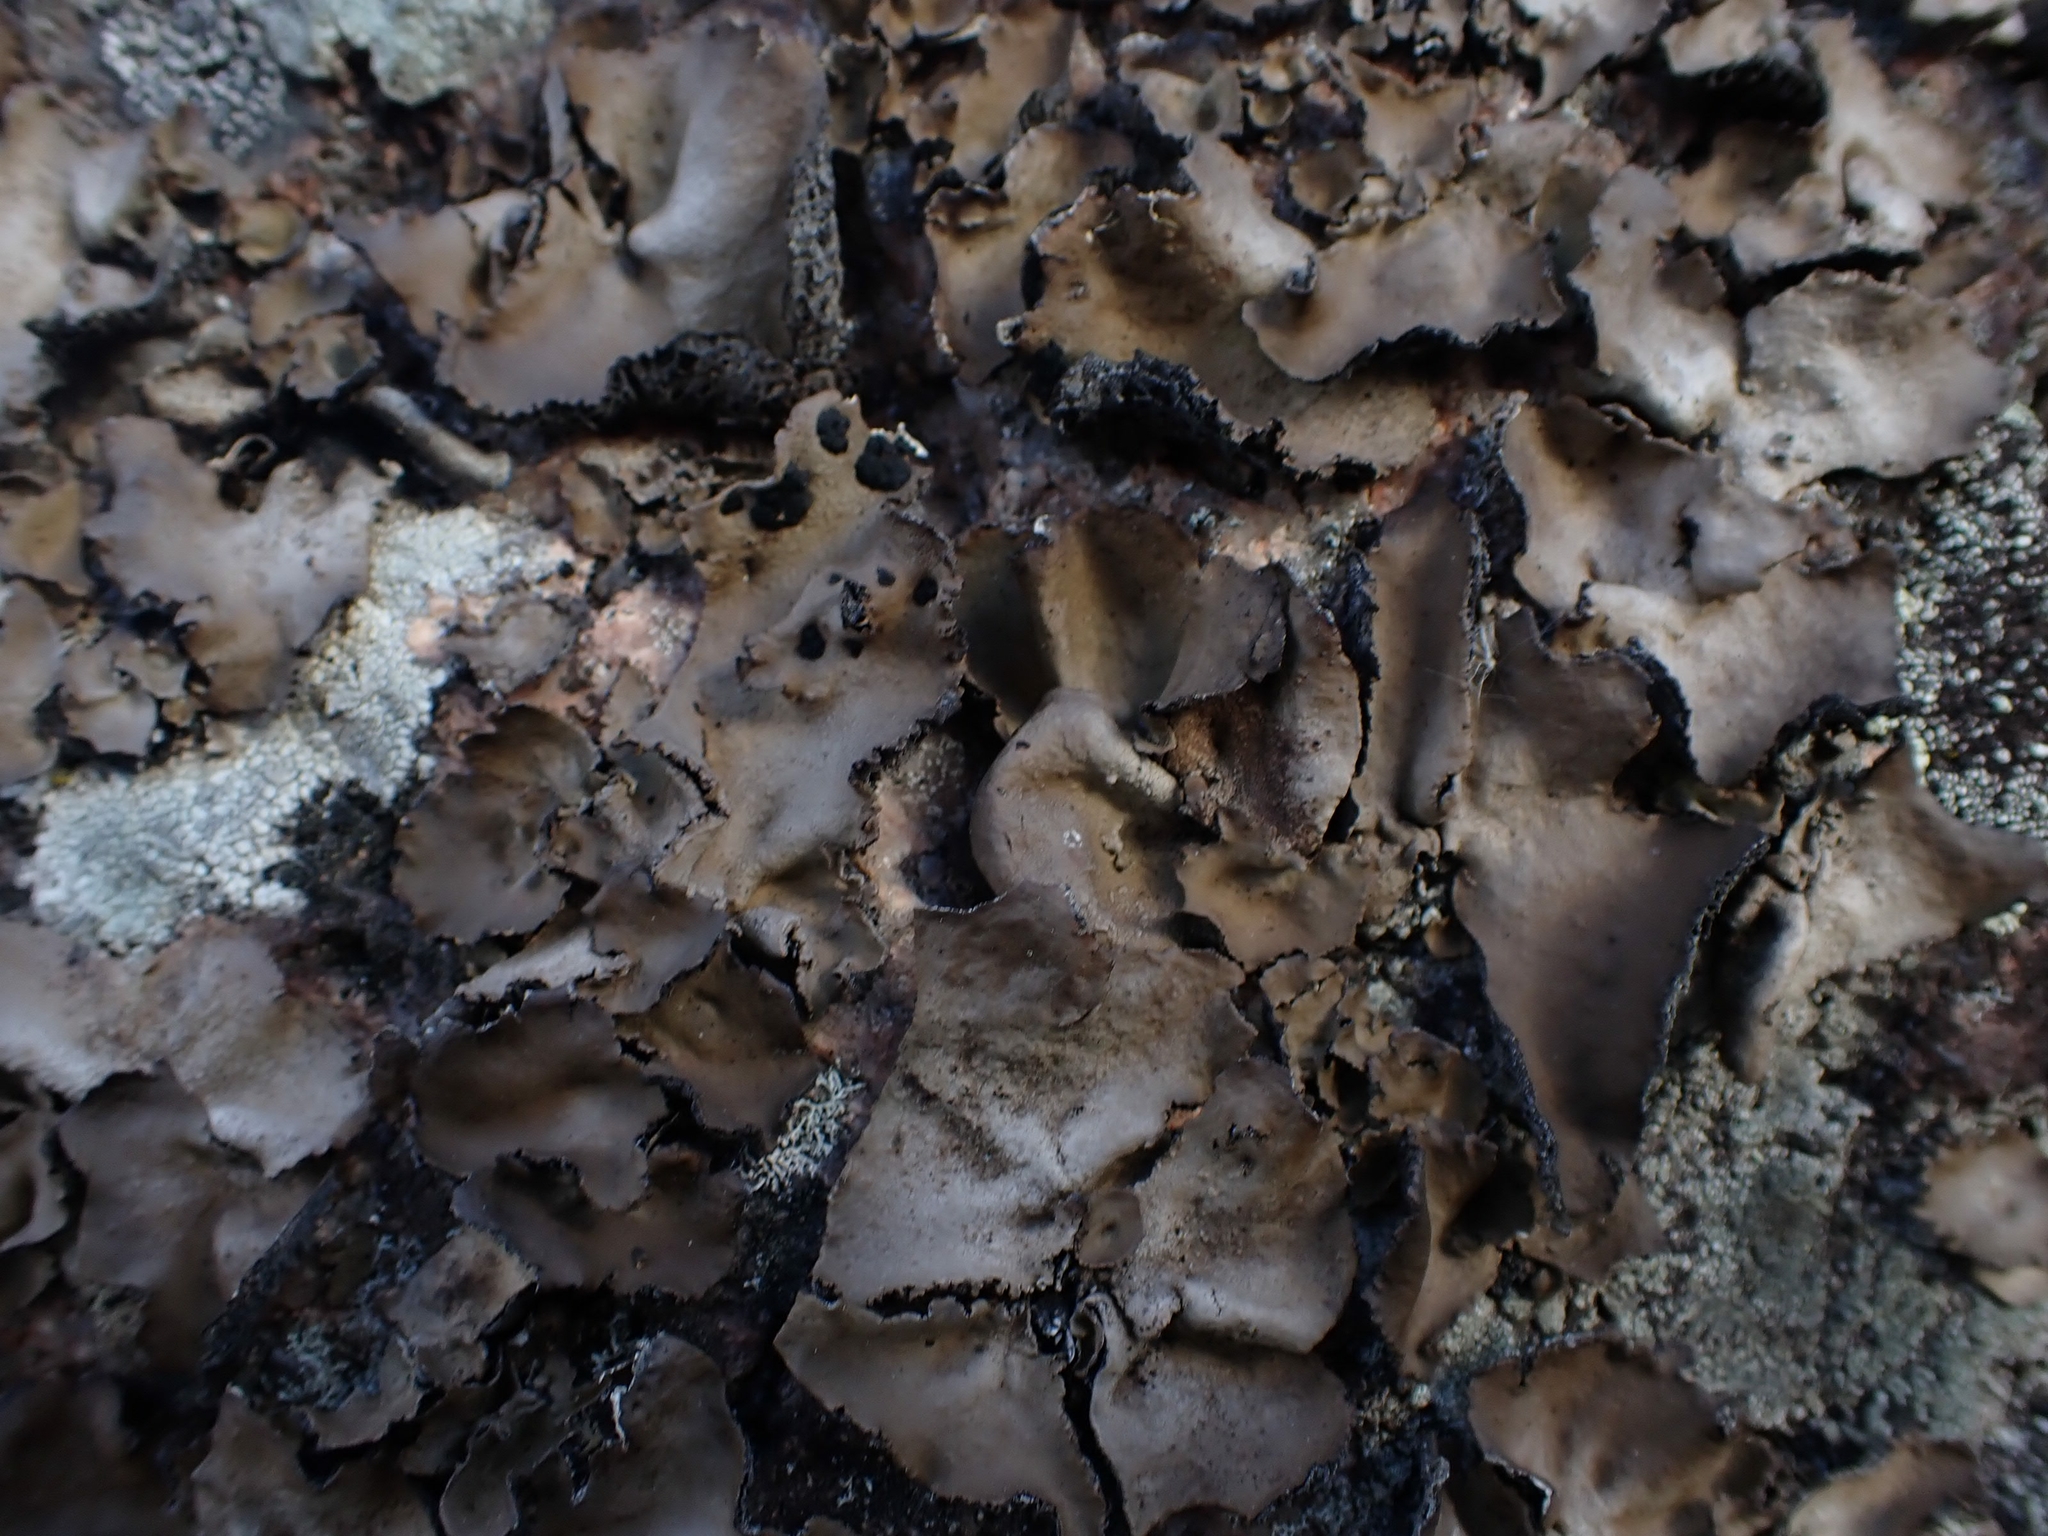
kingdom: Fungi
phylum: Ascomycota
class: Lecanoromycetes
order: Umbilicariales
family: Umbilicariaceae
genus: Umbilicaria
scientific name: Umbilicaria muhlenbergii
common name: Lesser rocktripe
